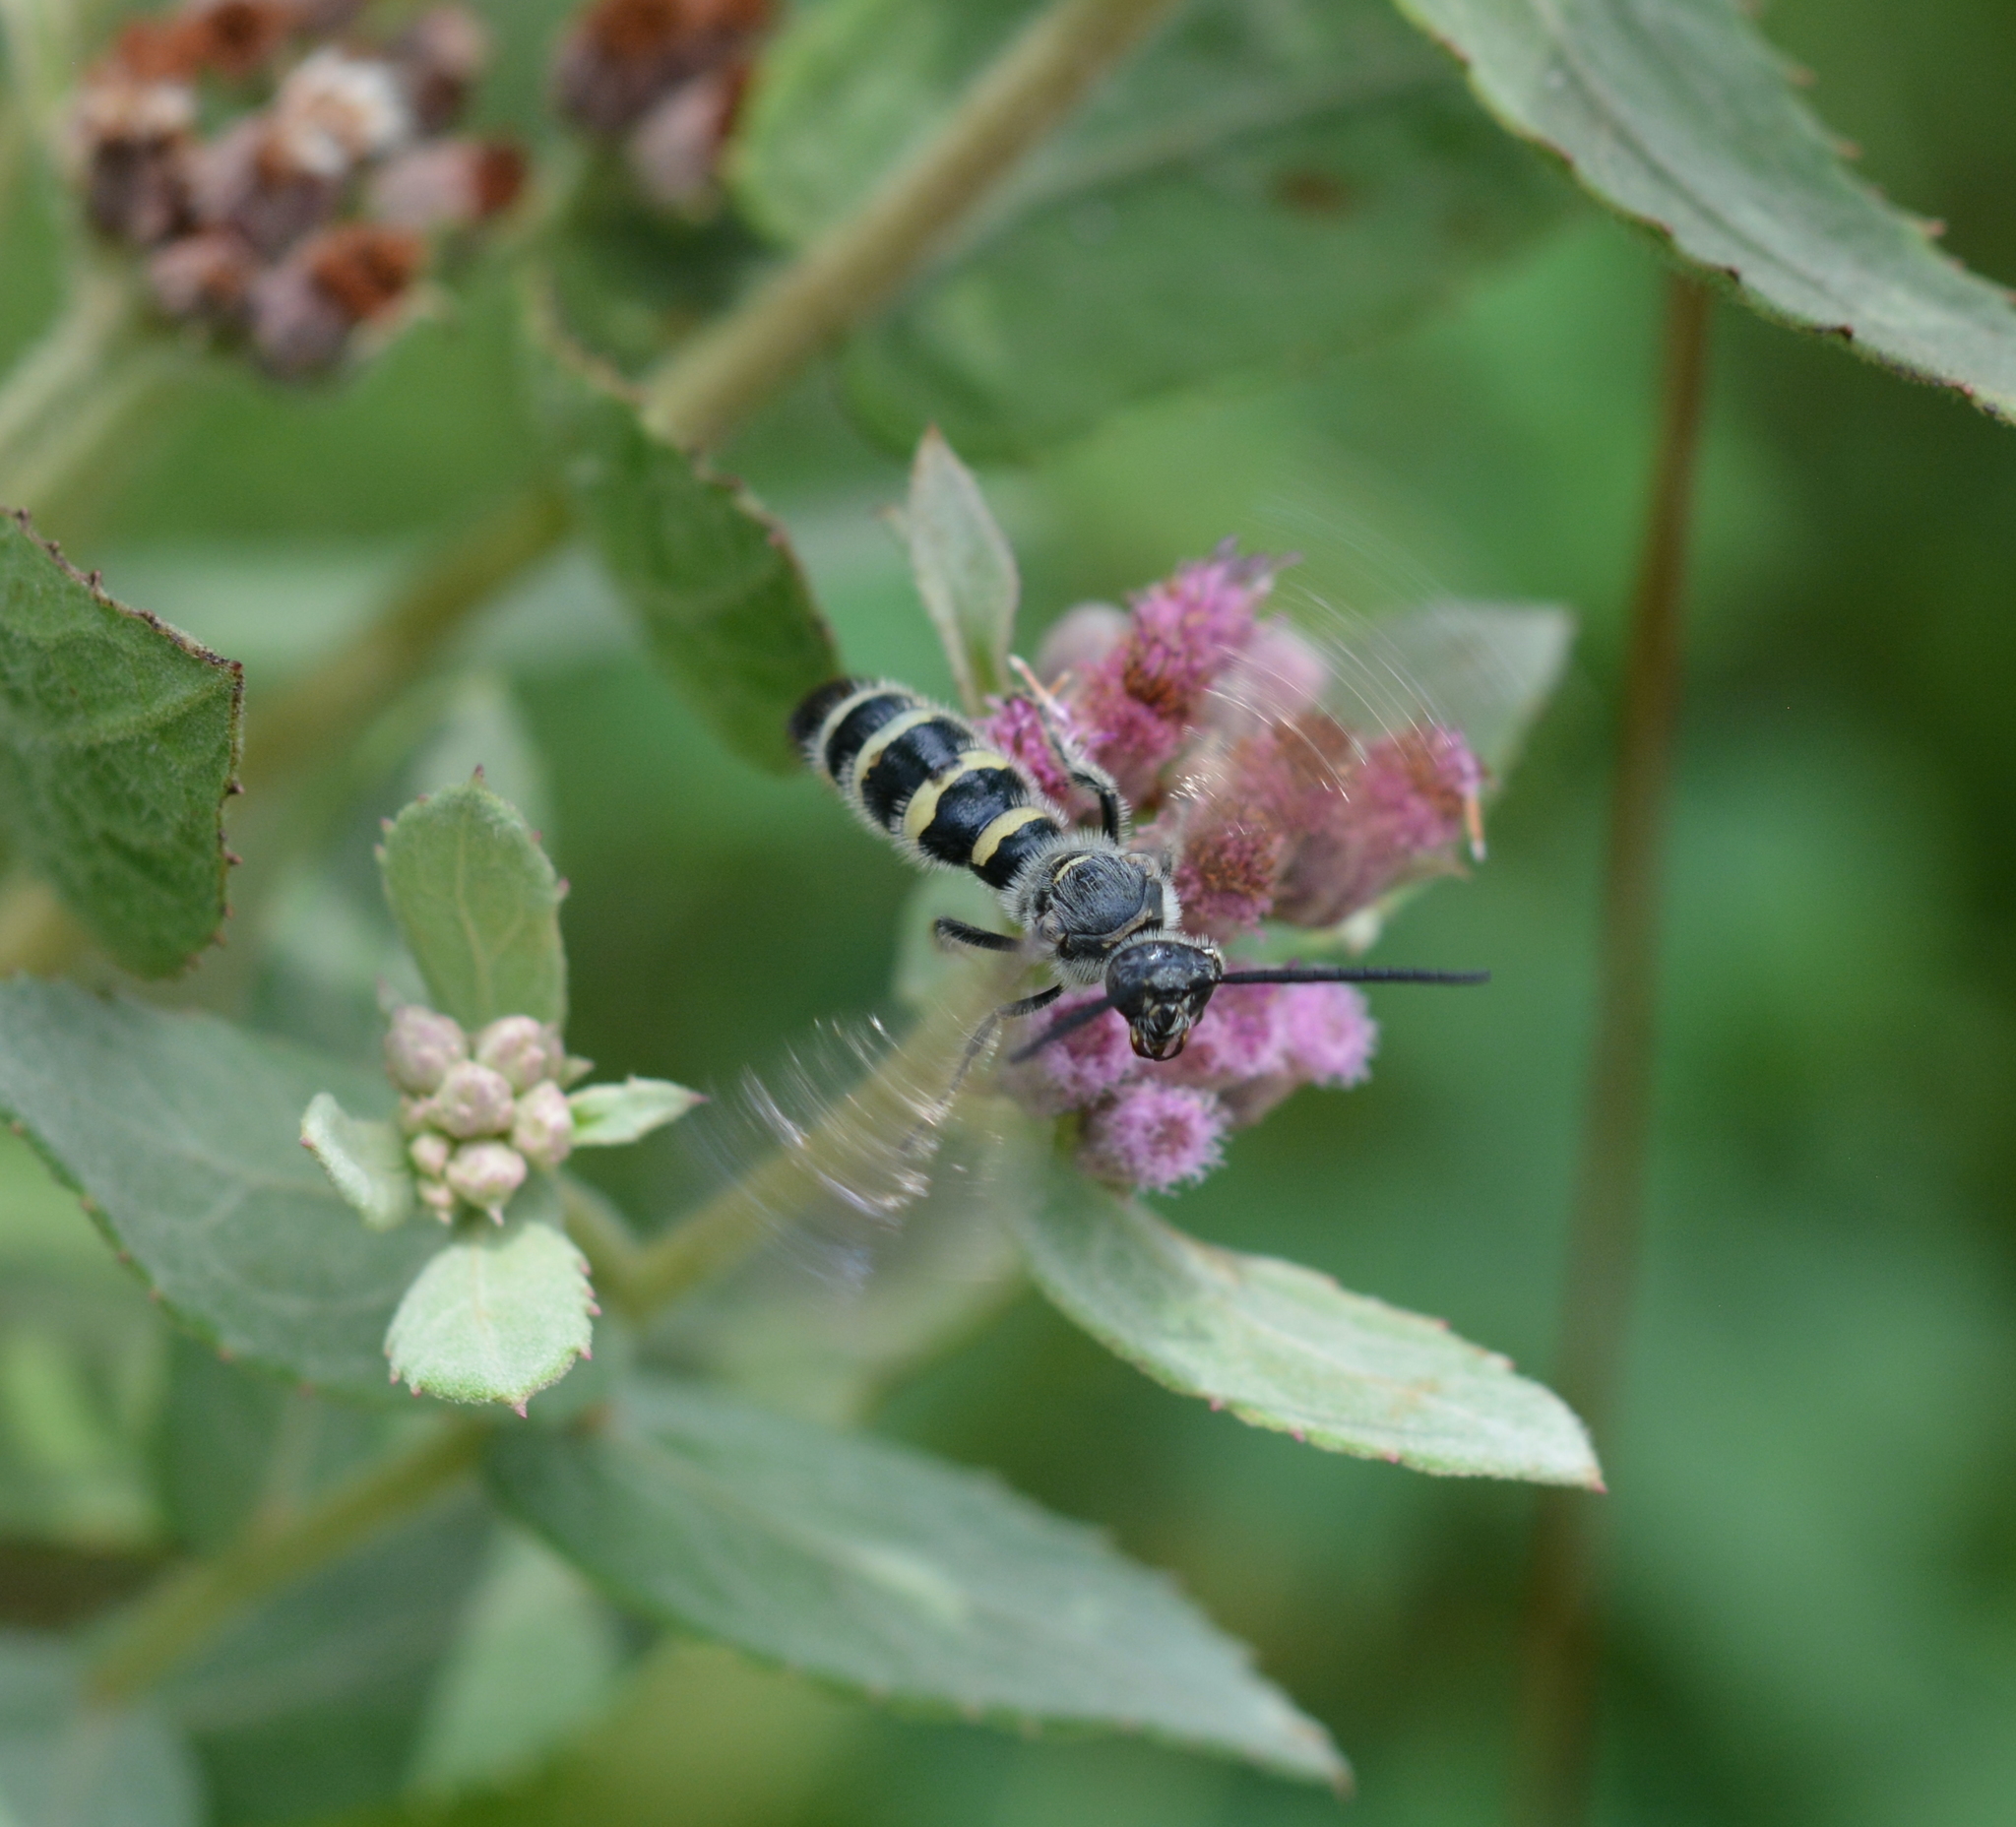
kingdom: Animalia
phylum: Arthropoda
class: Insecta
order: Hymenoptera
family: Scoliidae
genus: Dielis
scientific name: Dielis
